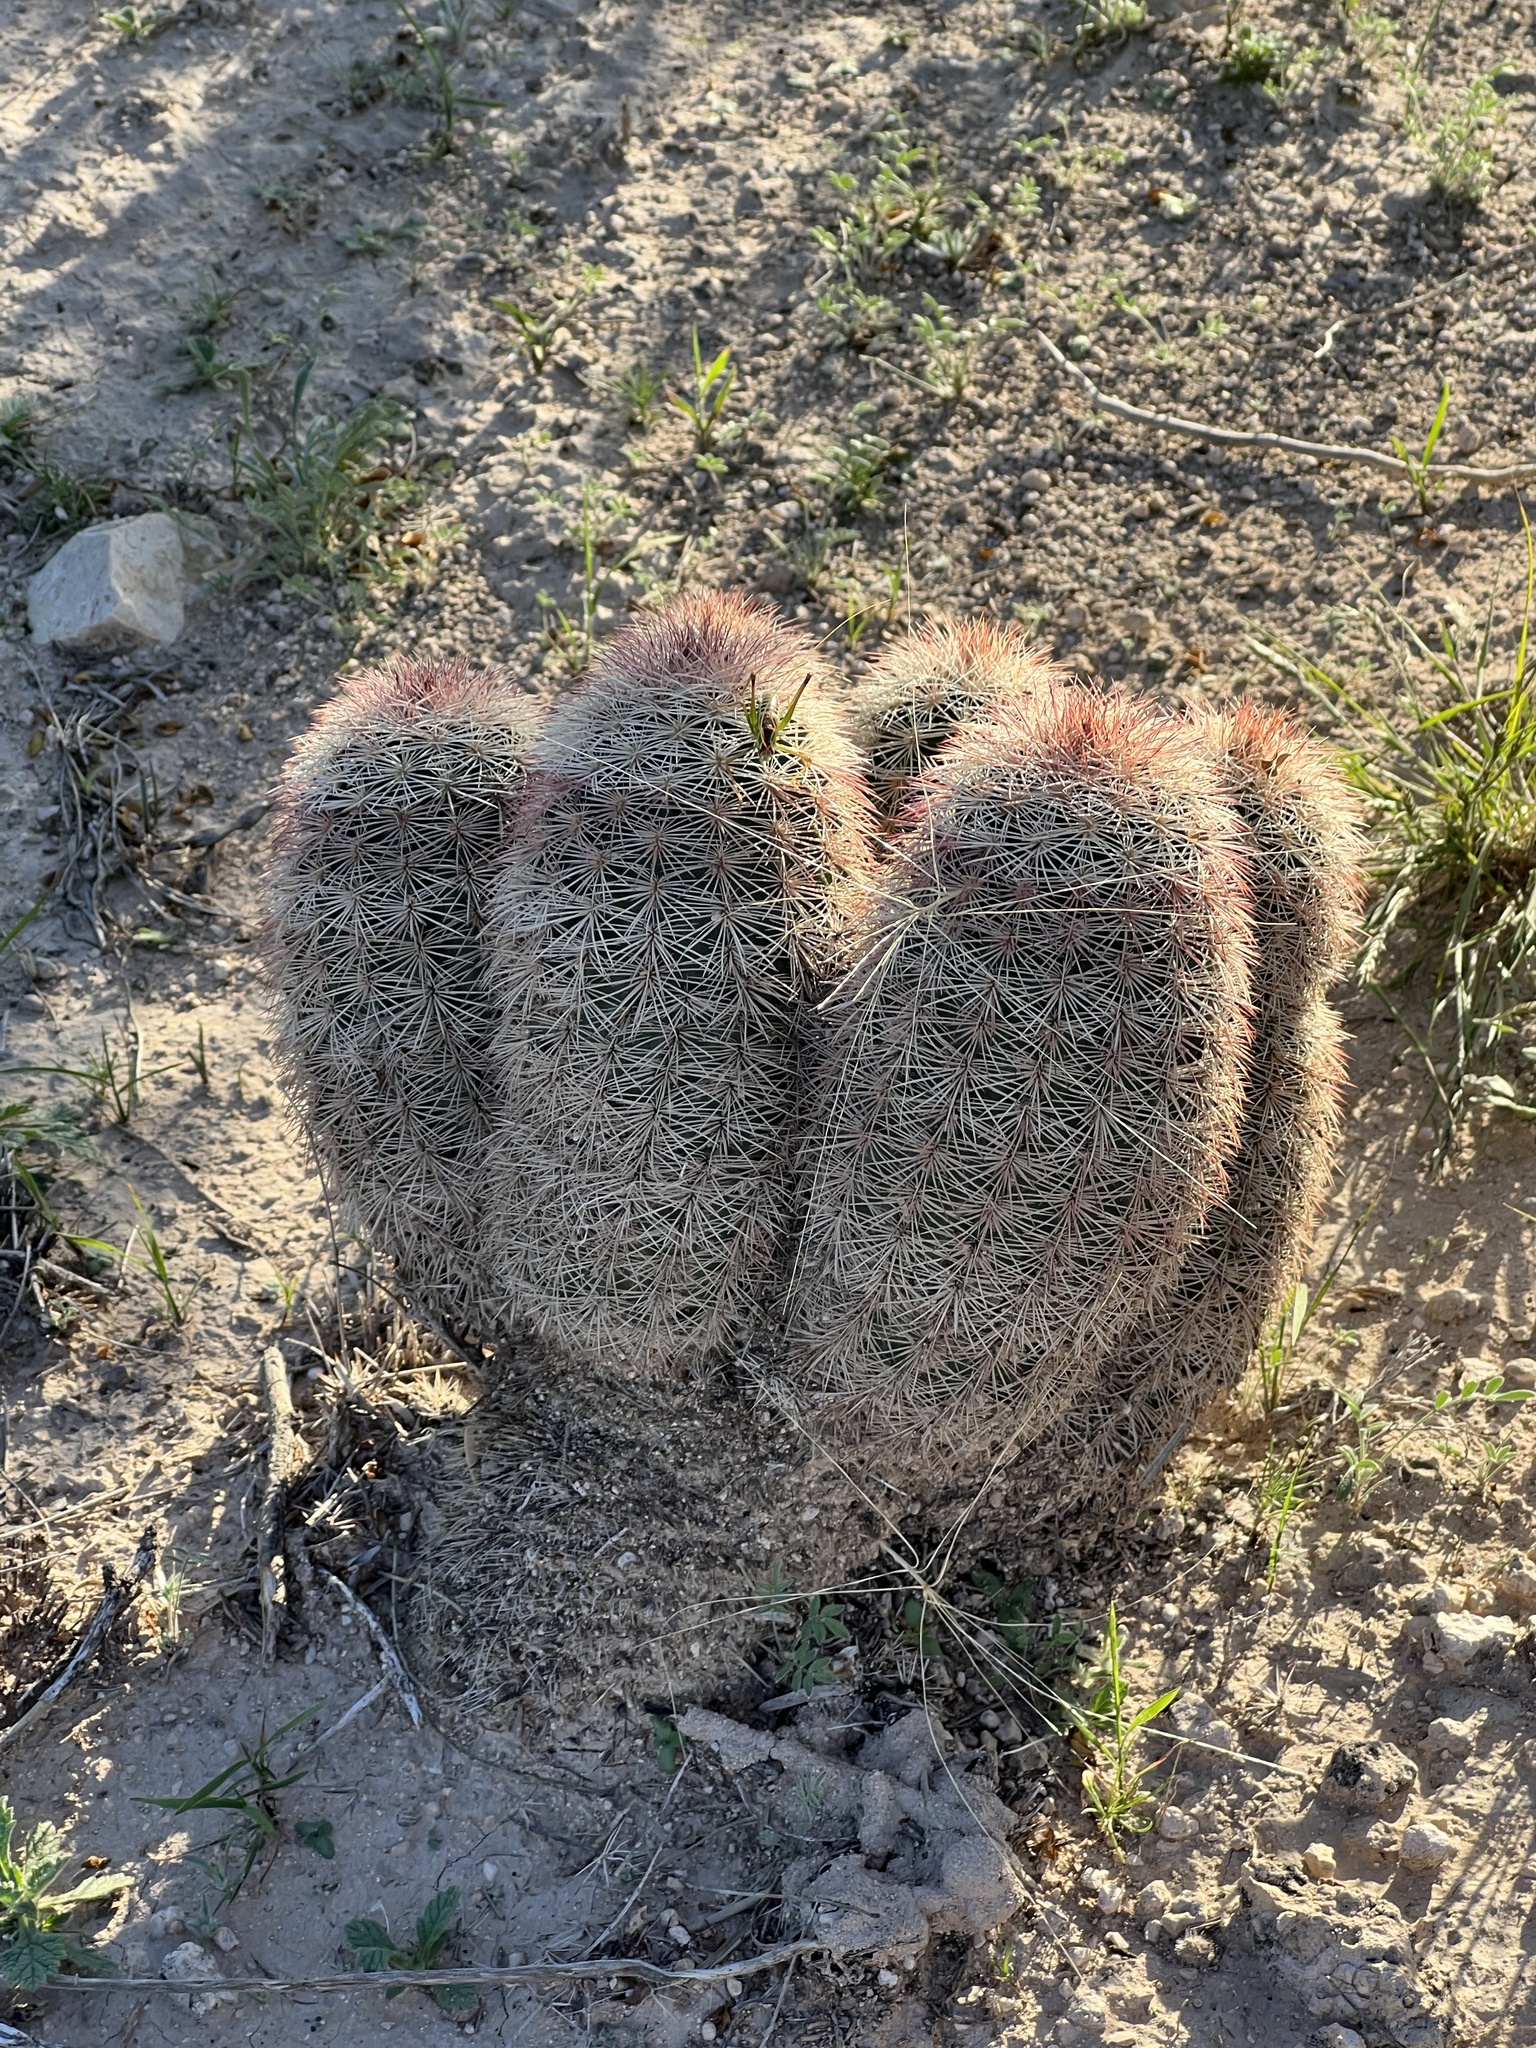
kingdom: Plantae
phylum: Tracheophyta
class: Magnoliopsida
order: Caryophyllales
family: Cactaceae
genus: Echinocereus
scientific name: Echinocereus dasyacanthus
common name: Spiny hedgehog cactus
